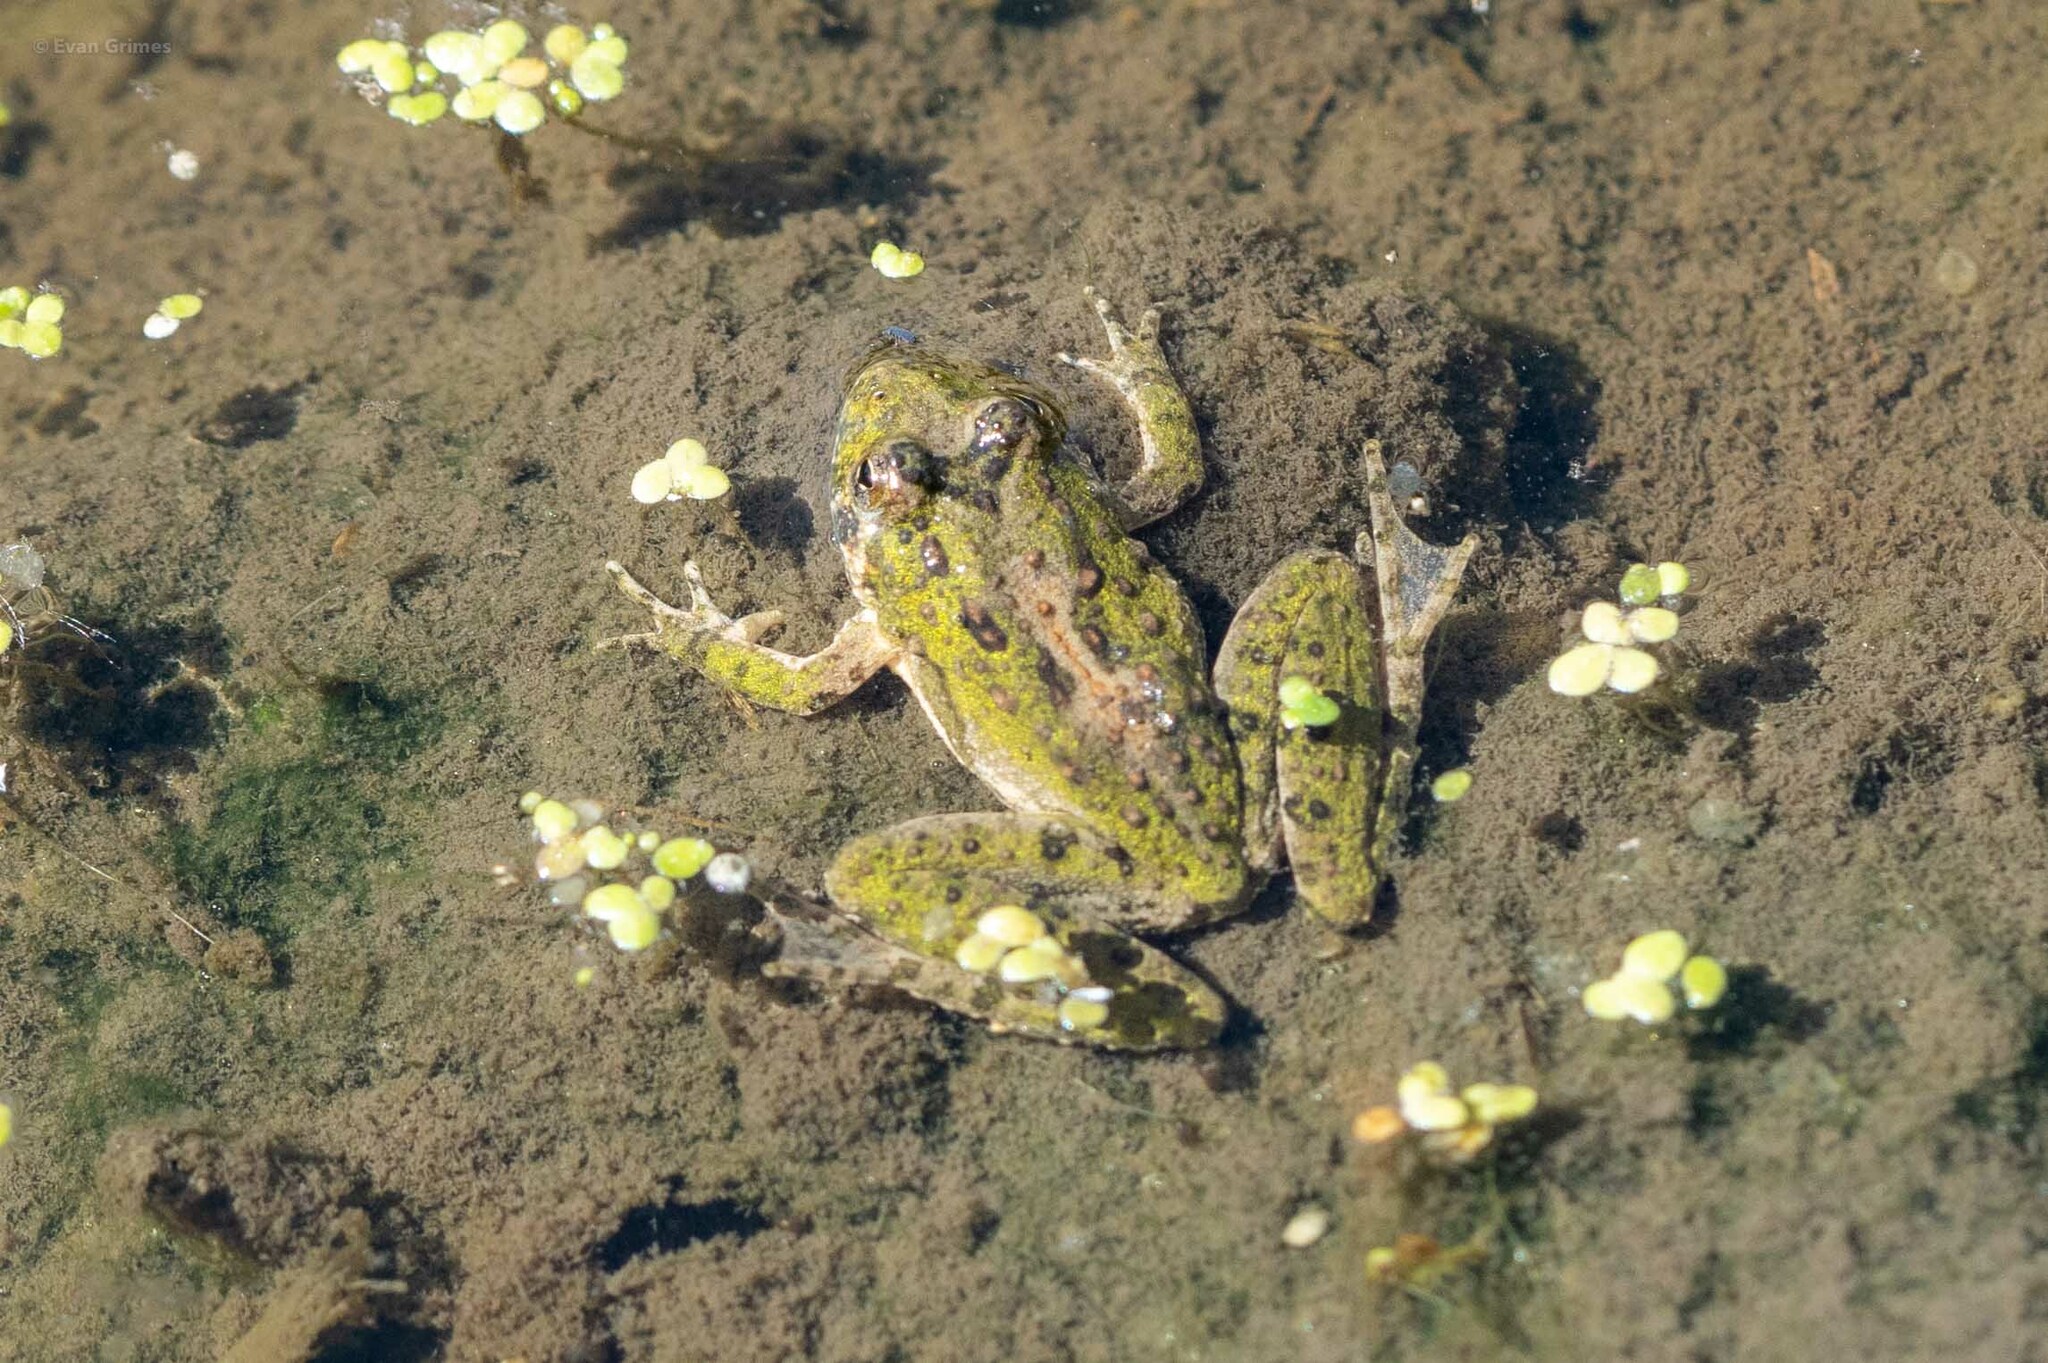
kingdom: Animalia
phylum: Chordata
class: Amphibia
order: Anura
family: Hylidae
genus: Acris
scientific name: Acris blanchardi
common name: Blanchard's cricket frog
